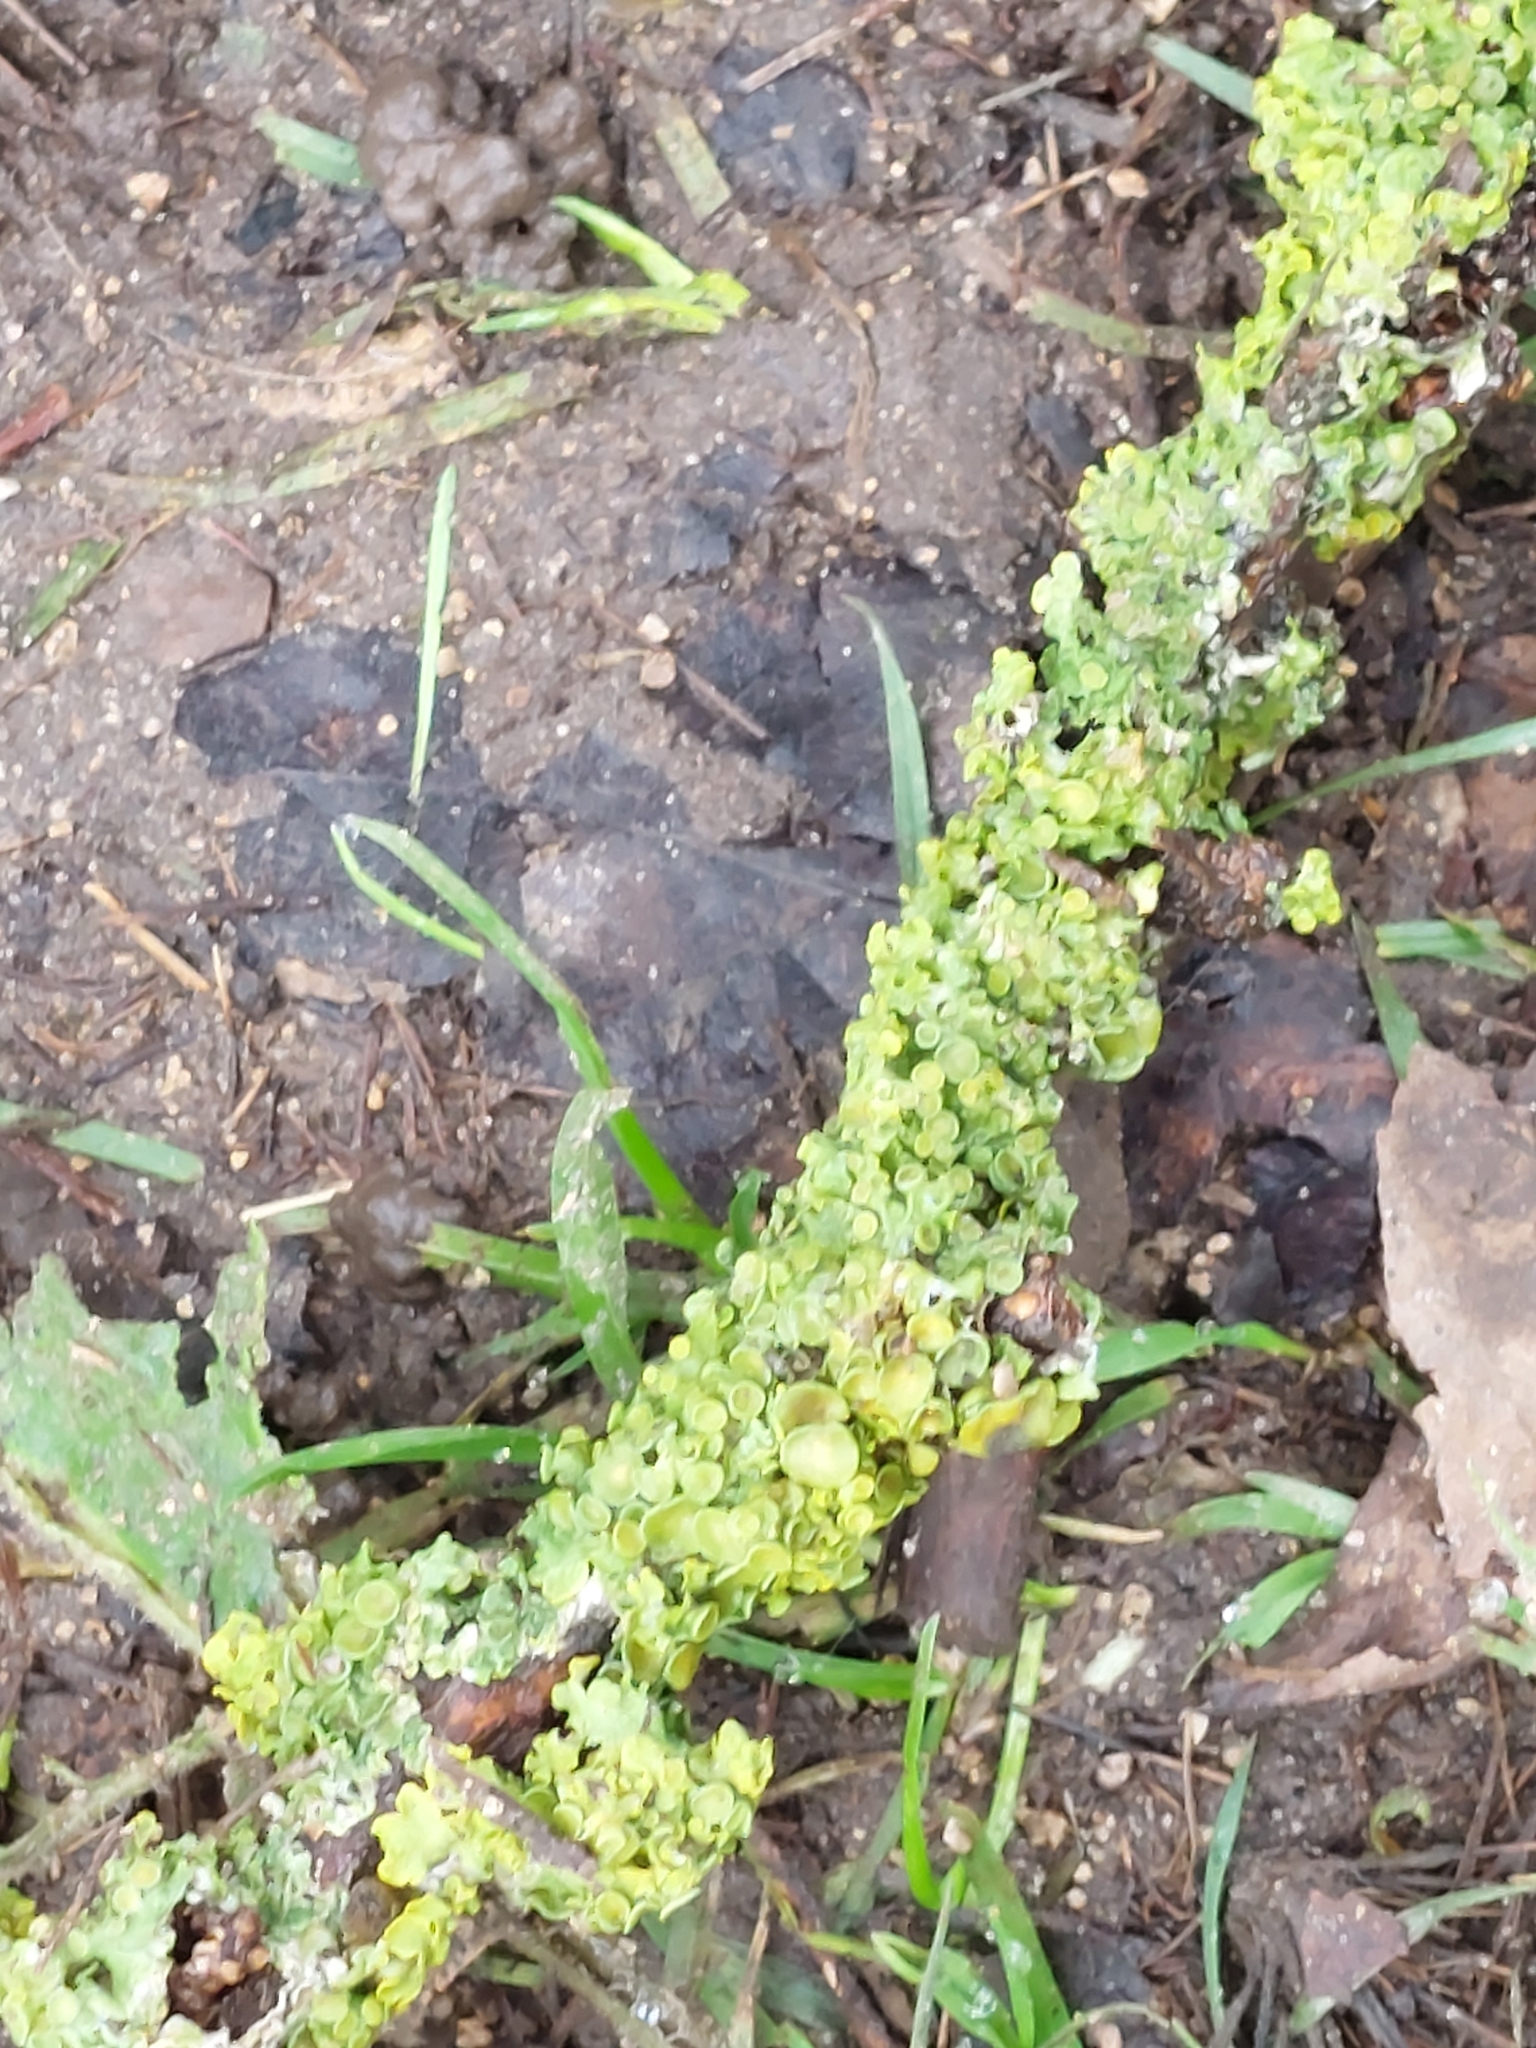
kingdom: Fungi
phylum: Ascomycota
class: Lecanoromycetes
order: Teloschistales
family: Teloschistaceae
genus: Xanthoria
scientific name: Xanthoria parietina
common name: Common orange lichen
